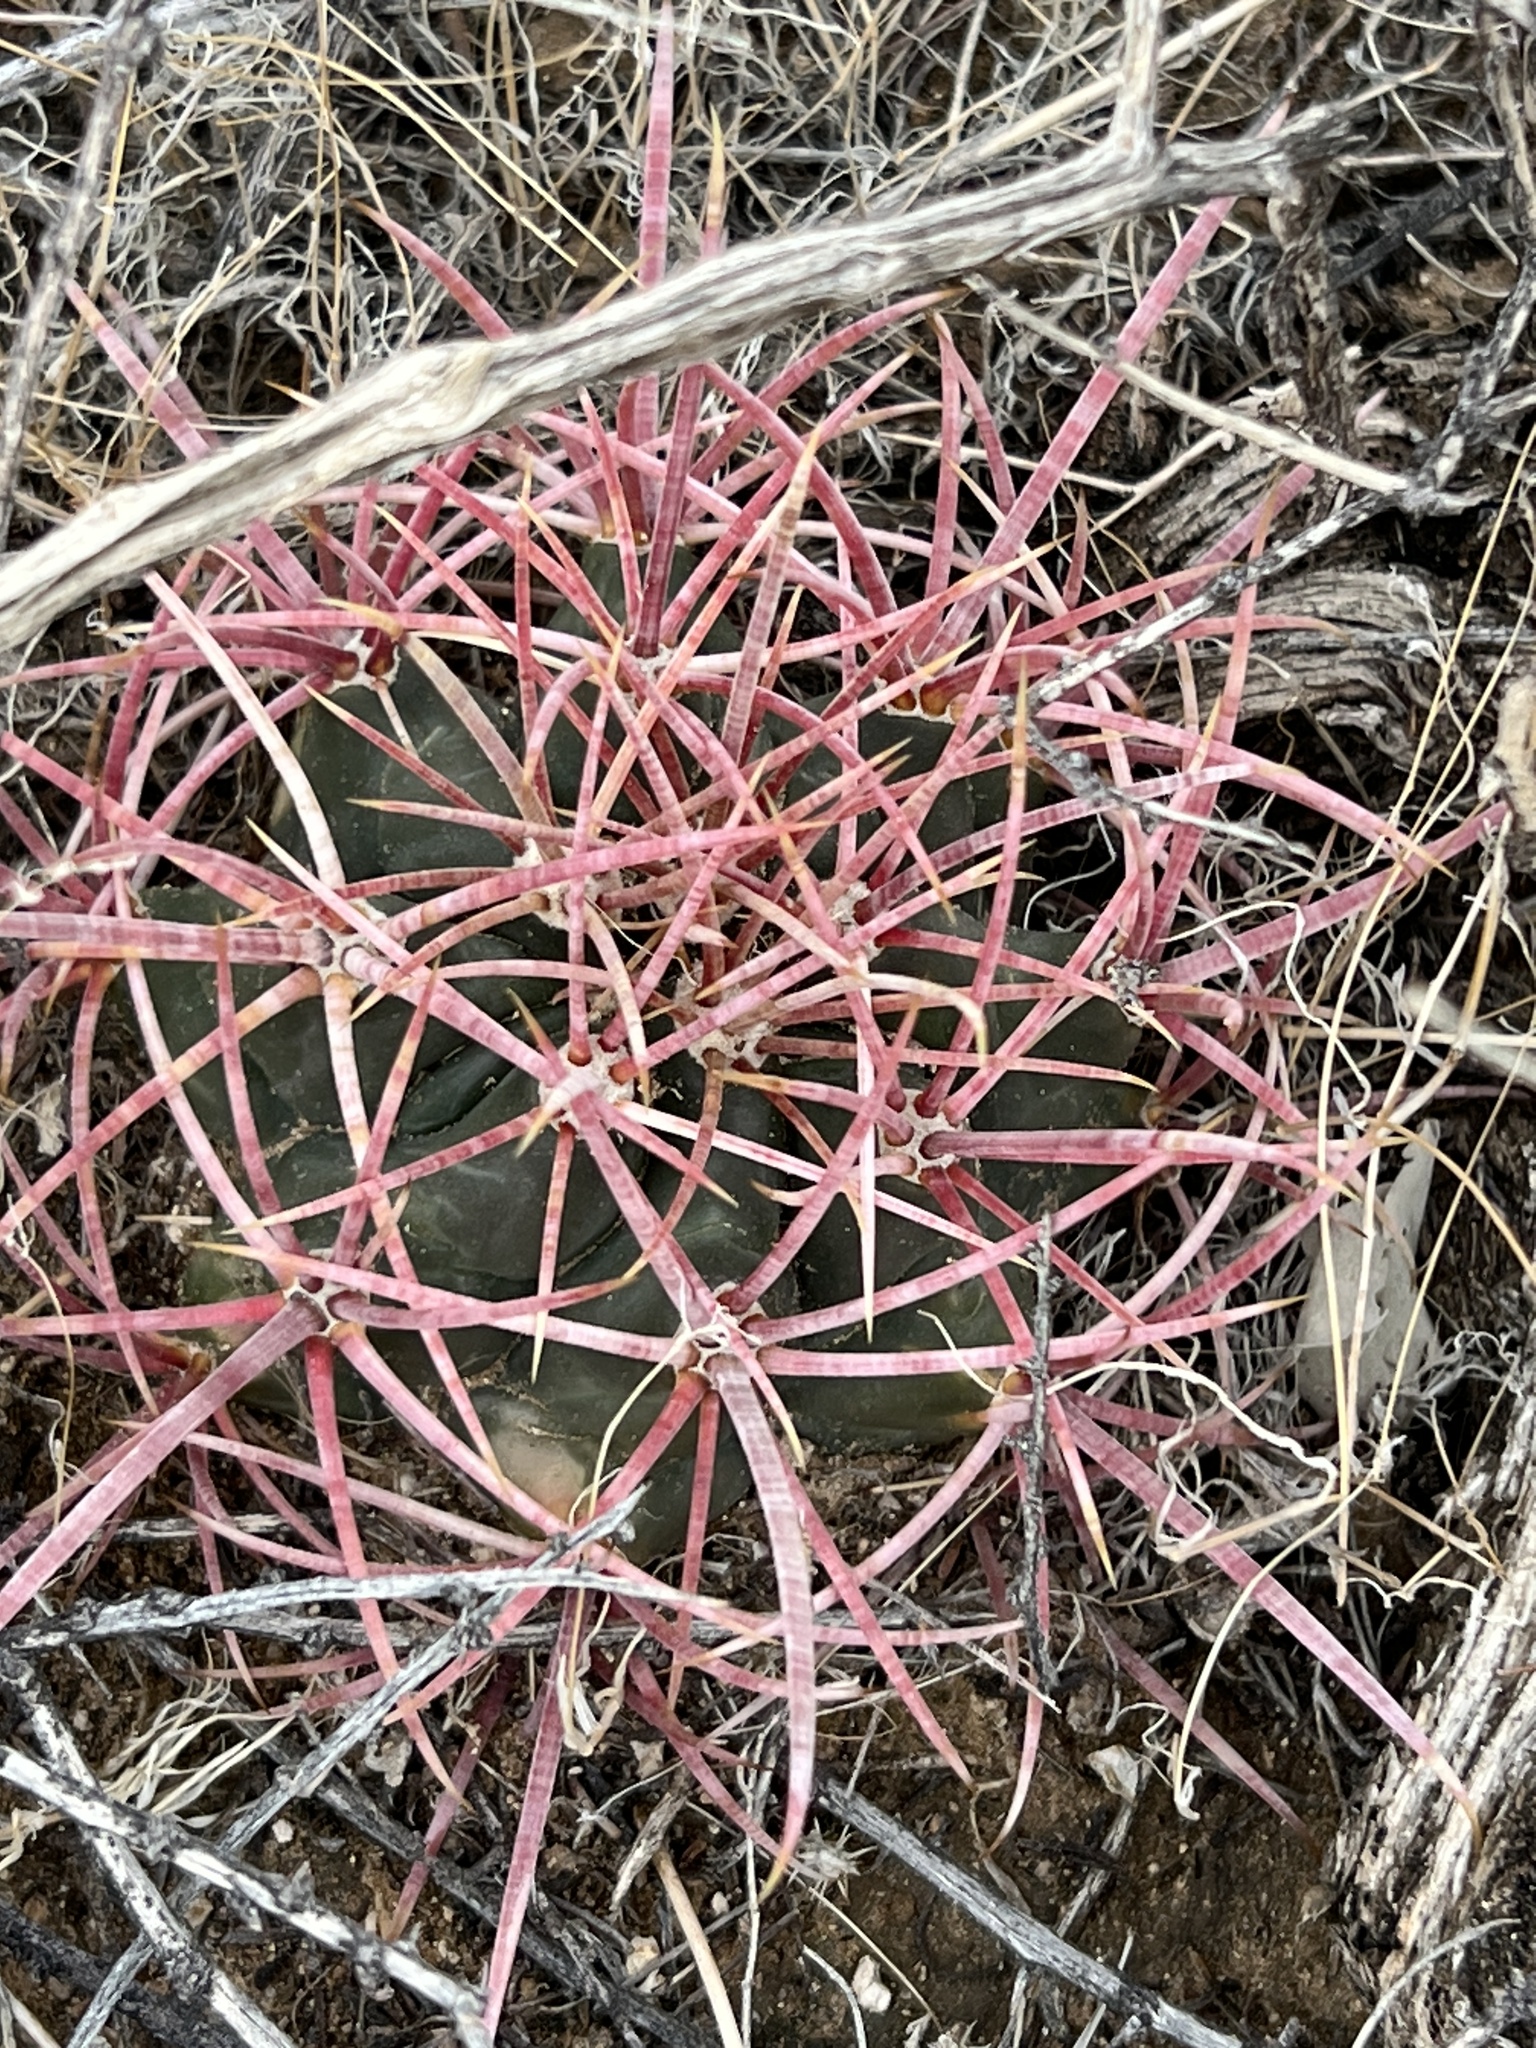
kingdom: Plantae
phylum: Tracheophyta
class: Magnoliopsida
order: Caryophyllales
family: Cactaceae
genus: Echinocactus
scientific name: Echinocactus polycephalus
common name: Cottontop cactus
